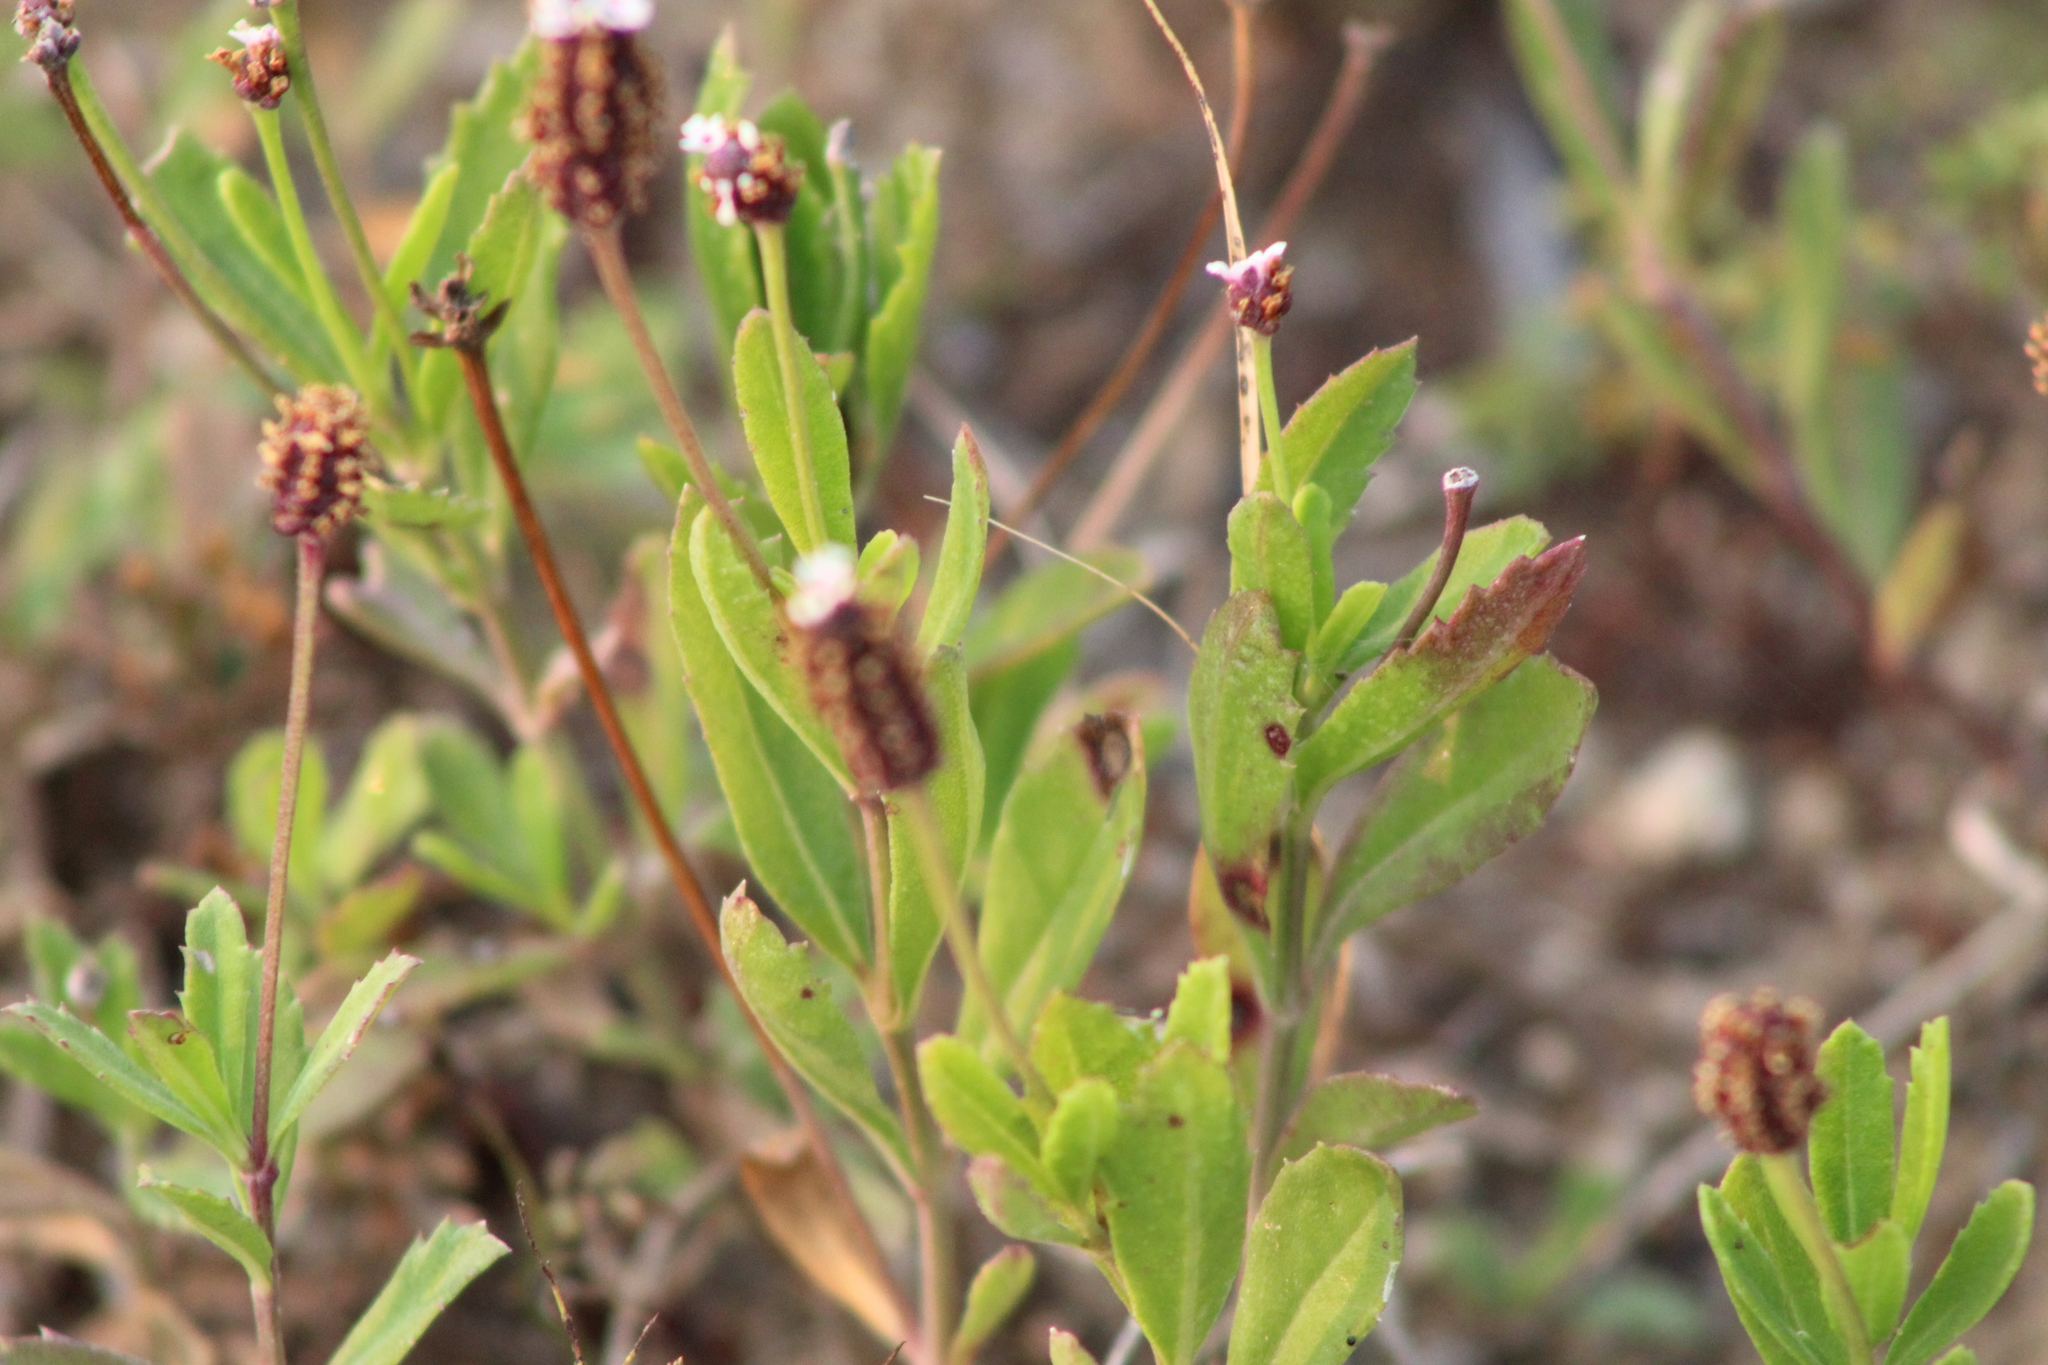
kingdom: Plantae
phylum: Tracheophyta
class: Magnoliopsida
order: Lamiales
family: Verbenaceae
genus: Phyla
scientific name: Phyla nodiflora
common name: Frogfruit
